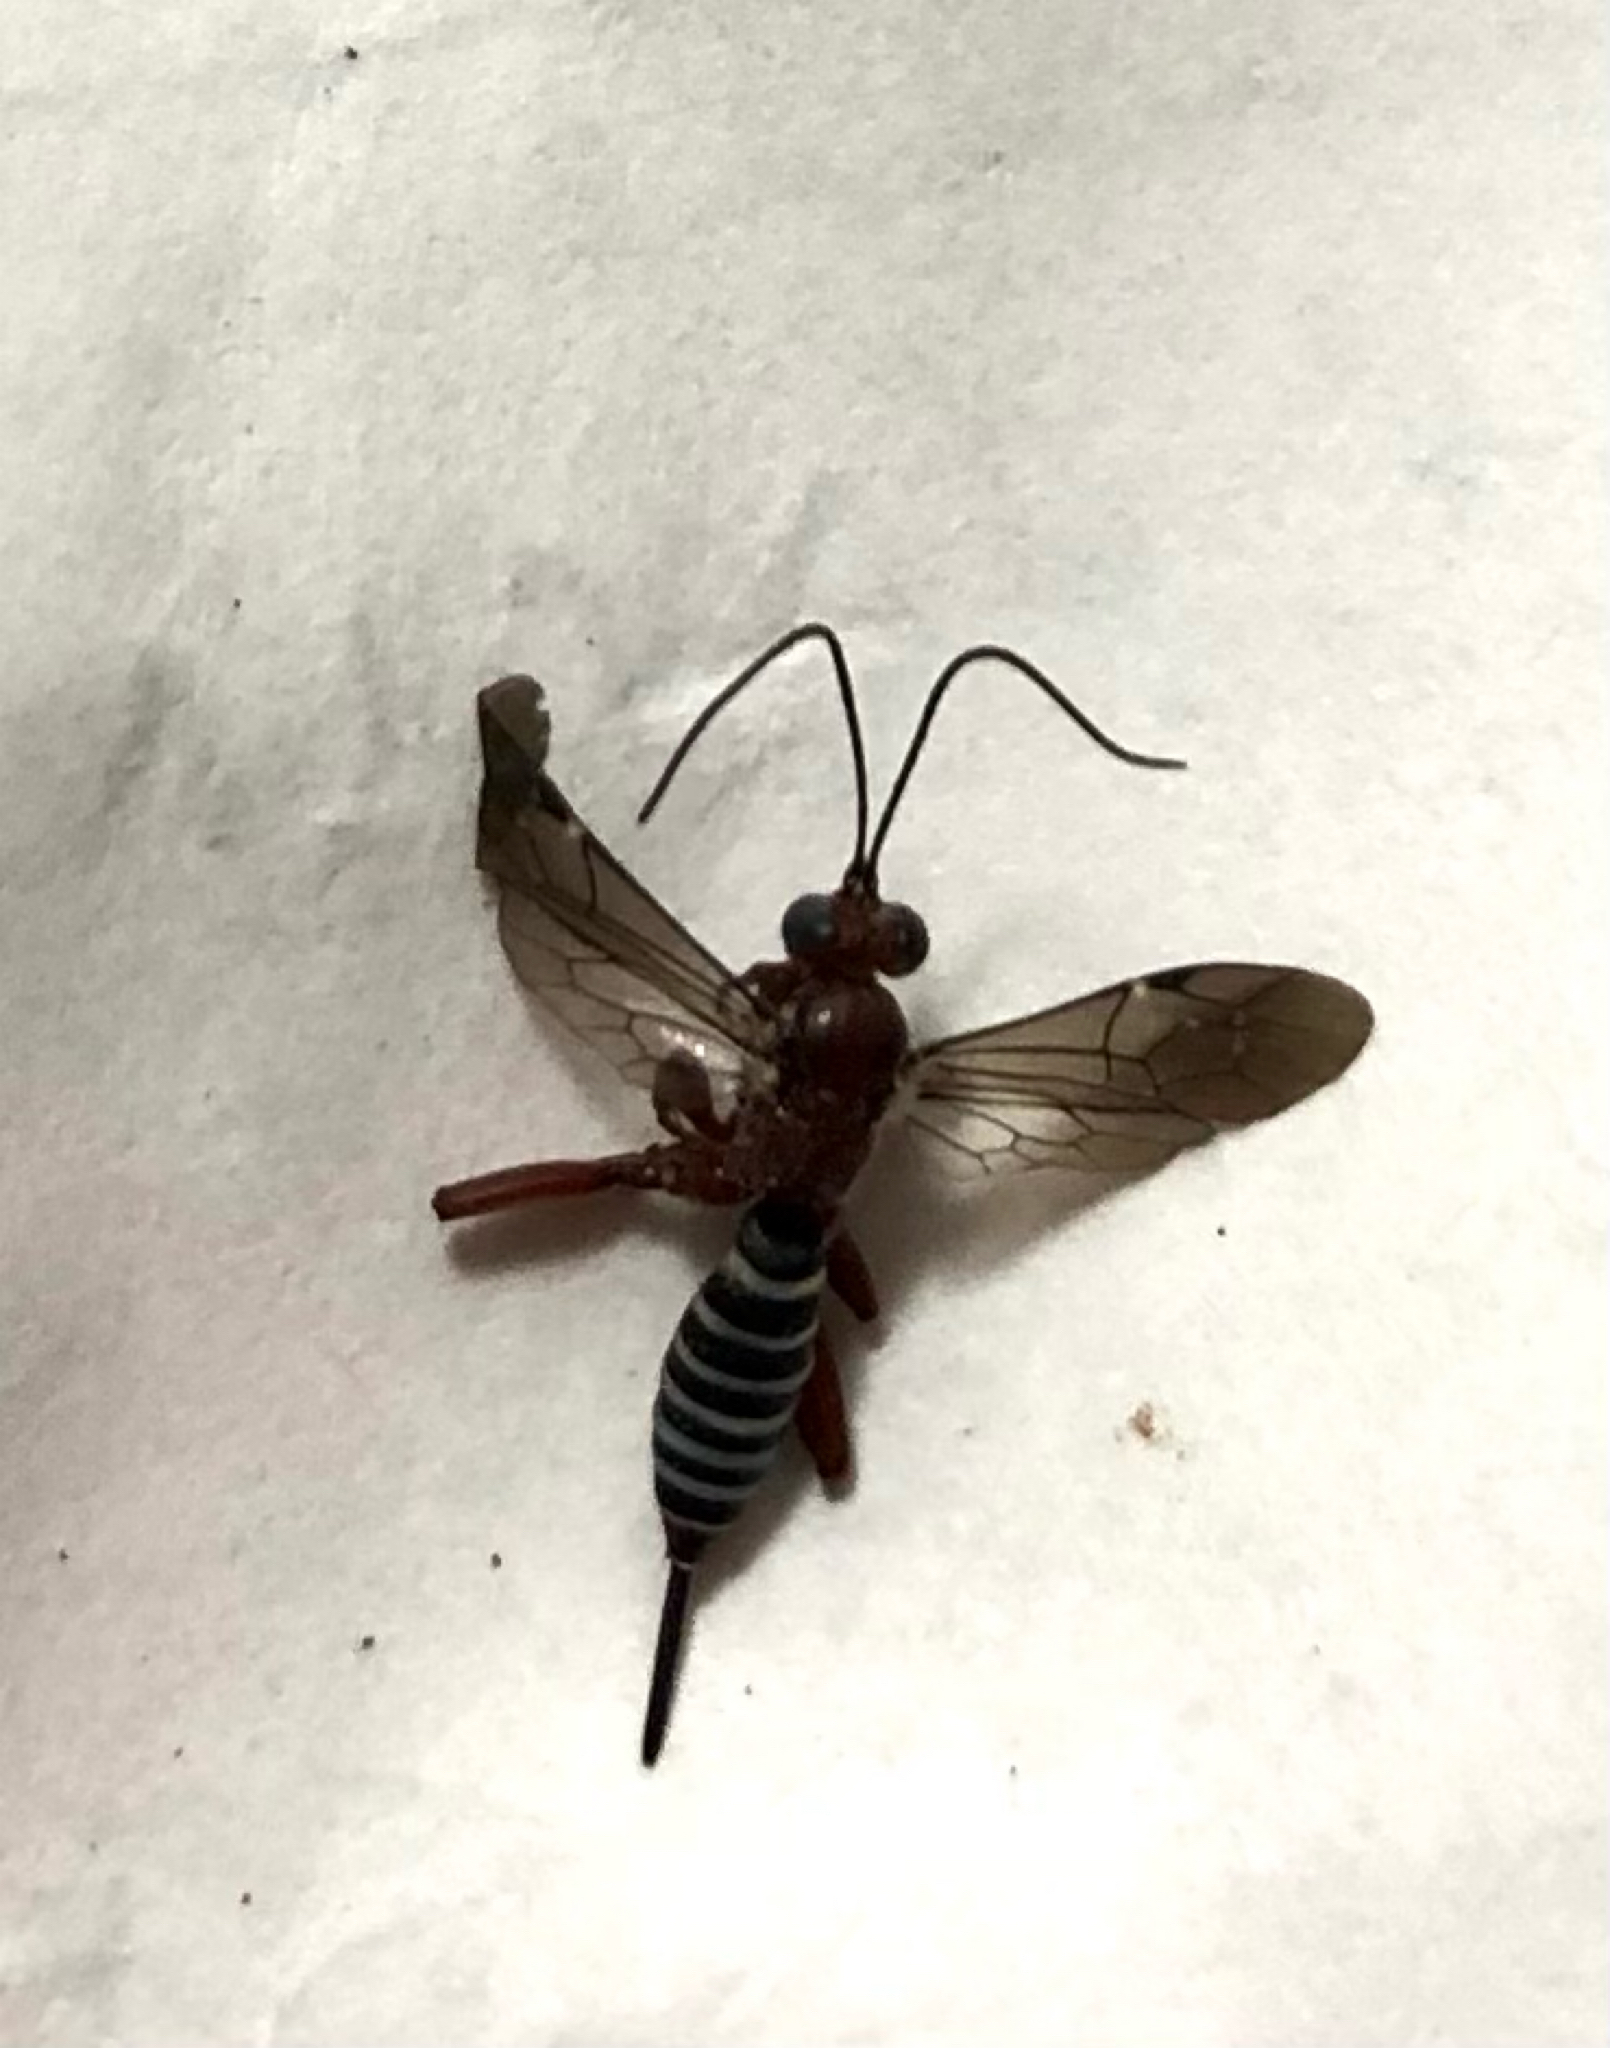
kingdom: Animalia
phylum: Arthropoda
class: Insecta
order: Hymenoptera
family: Ichneumonidae
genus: Pimpla
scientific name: Pimpla marginella
